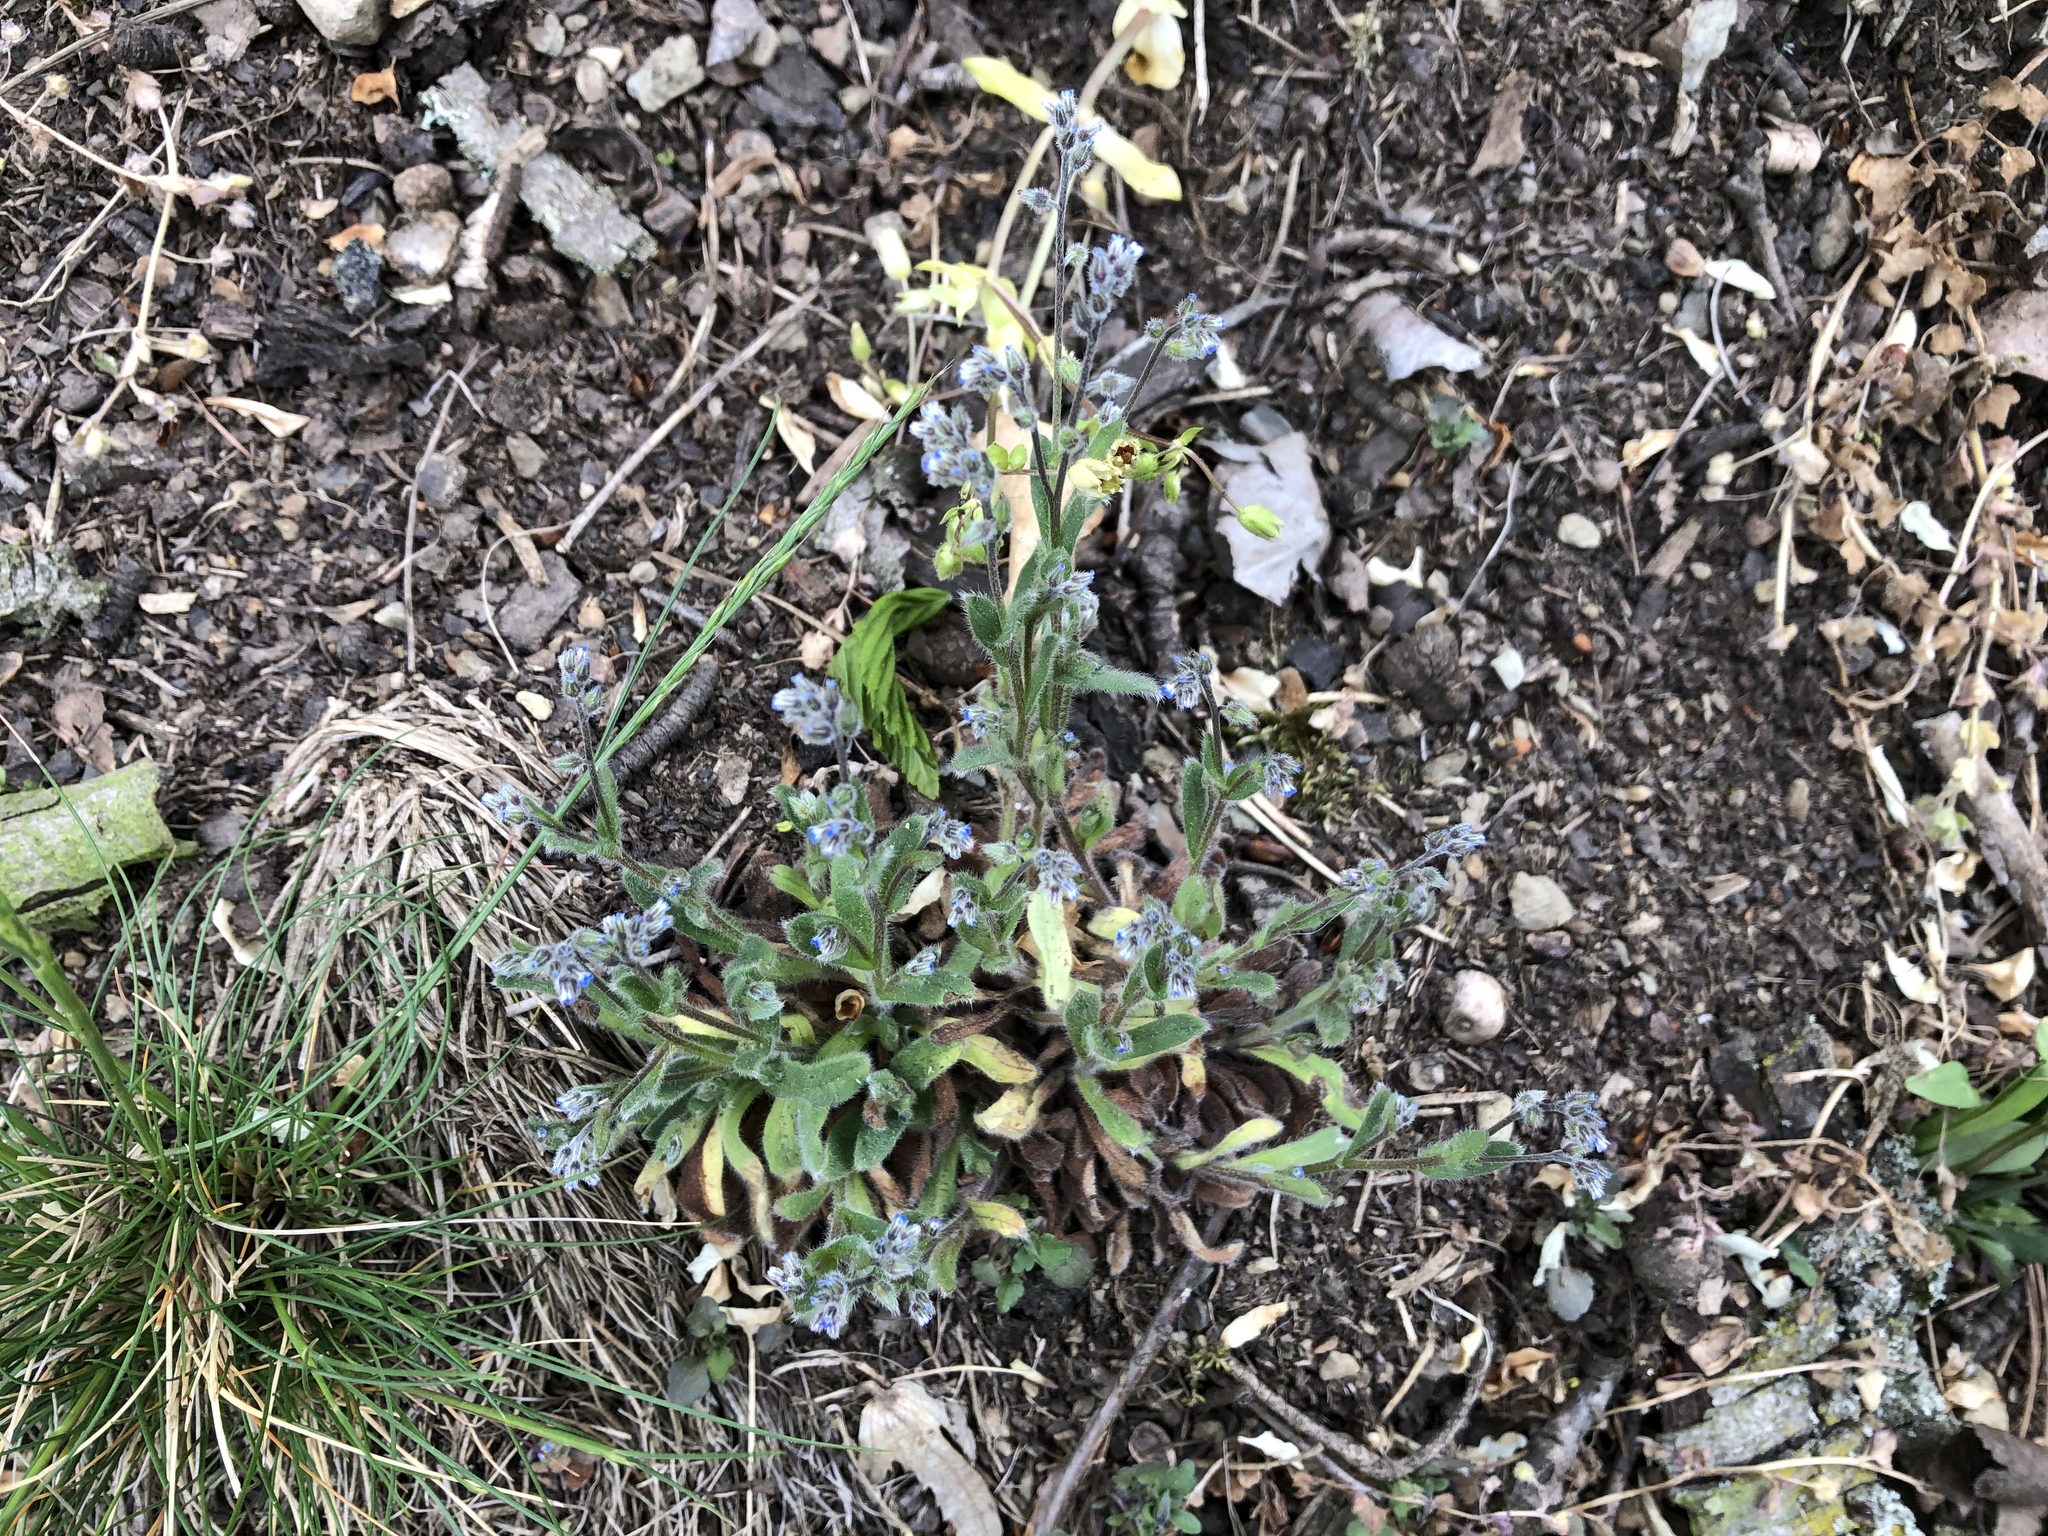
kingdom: Plantae
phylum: Tracheophyta
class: Magnoliopsida
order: Boraginales
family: Boraginaceae
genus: Myosotis
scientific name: Myosotis ramosissima
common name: Early forget-me-not
